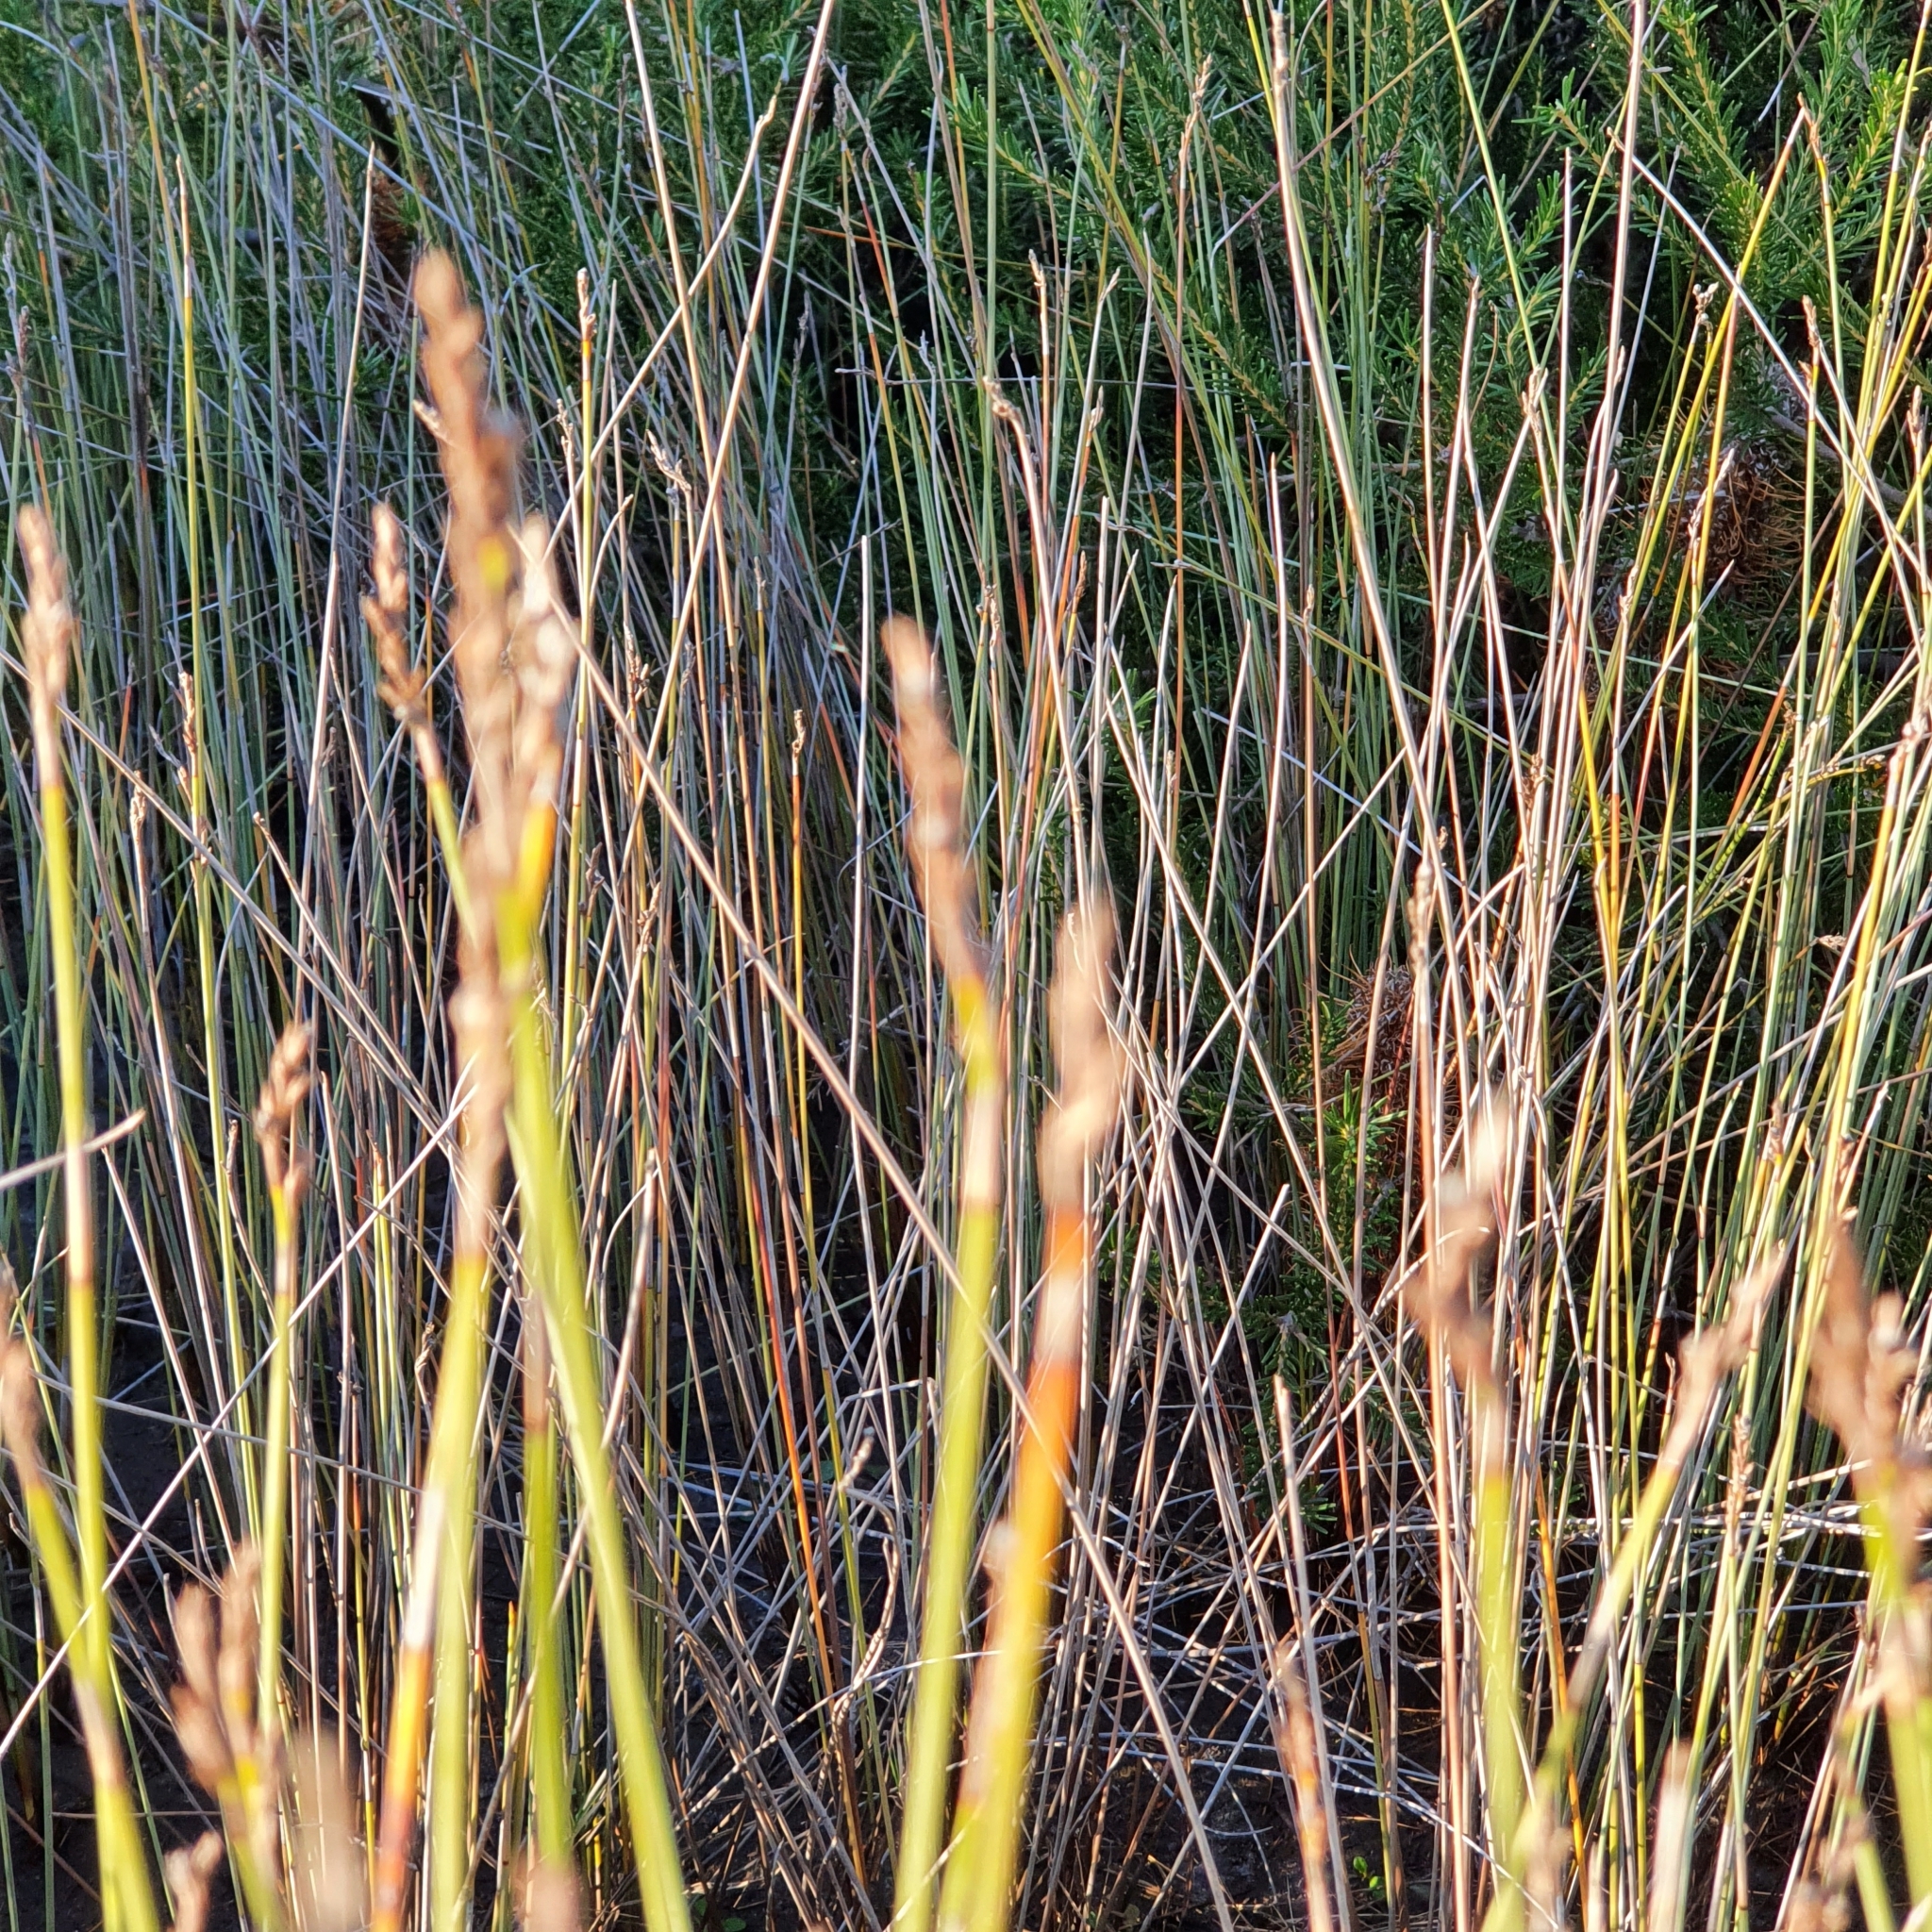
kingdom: Plantae
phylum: Tracheophyta
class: Liliopsida
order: Poales
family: Cyperaceae
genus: Machaerina
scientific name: Machaerina juncea
